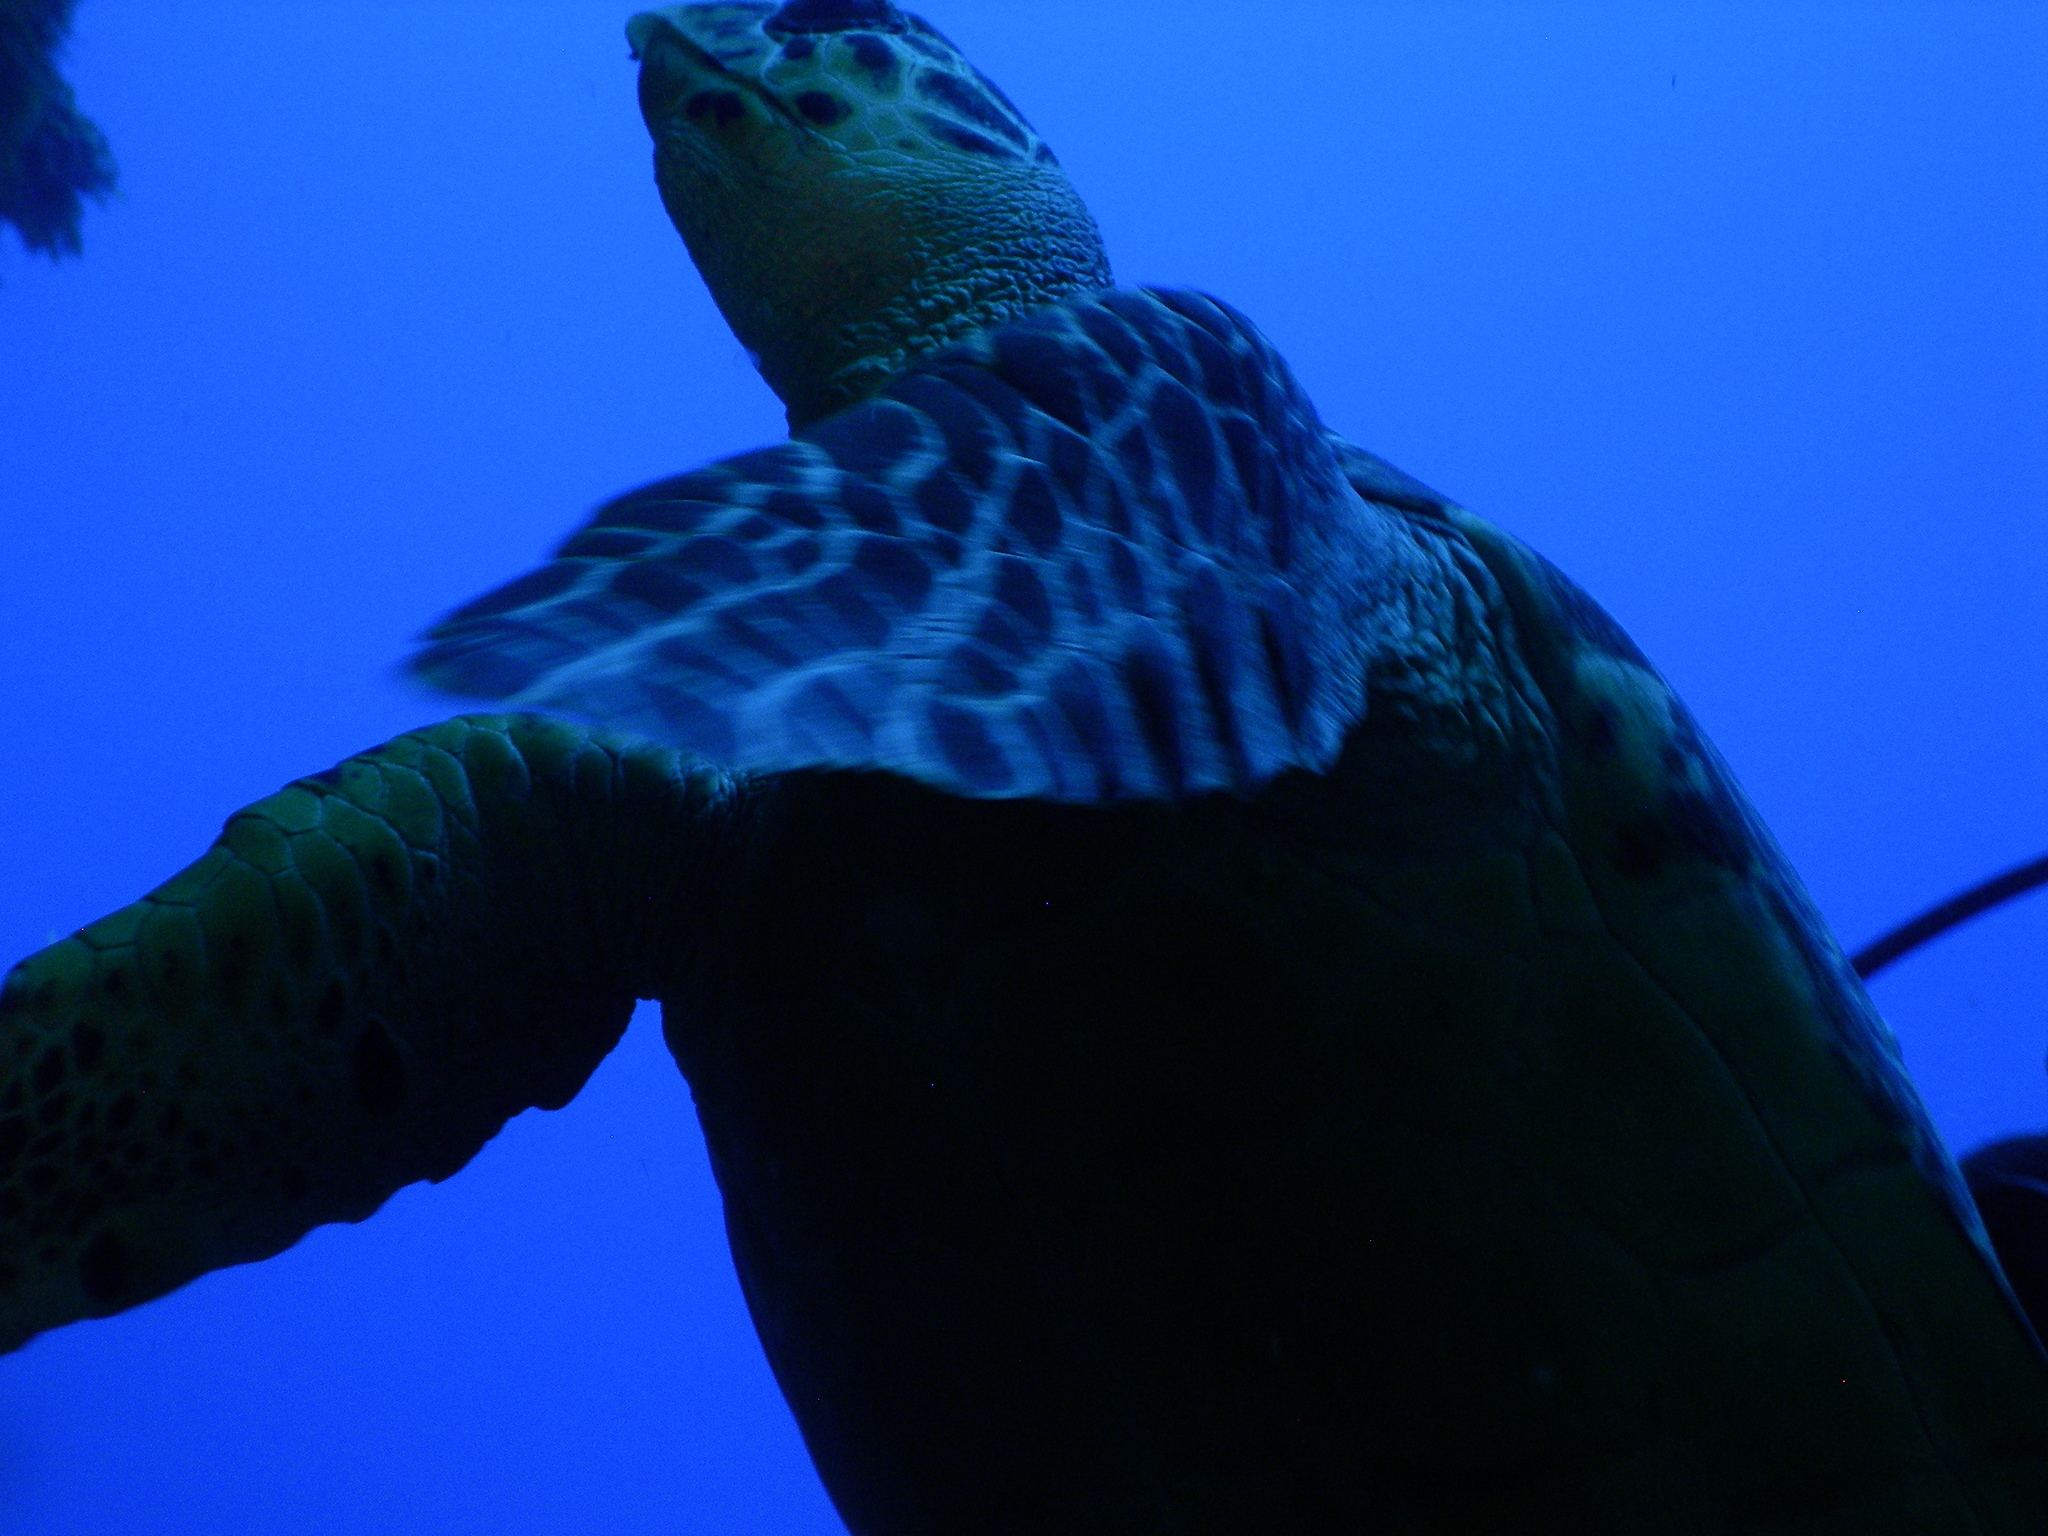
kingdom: Animalia
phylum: Chordata
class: Testudines
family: Cheloniidae
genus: Eretmochelys
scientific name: Eretmochelys imbricata
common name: Hawksbill turtle
